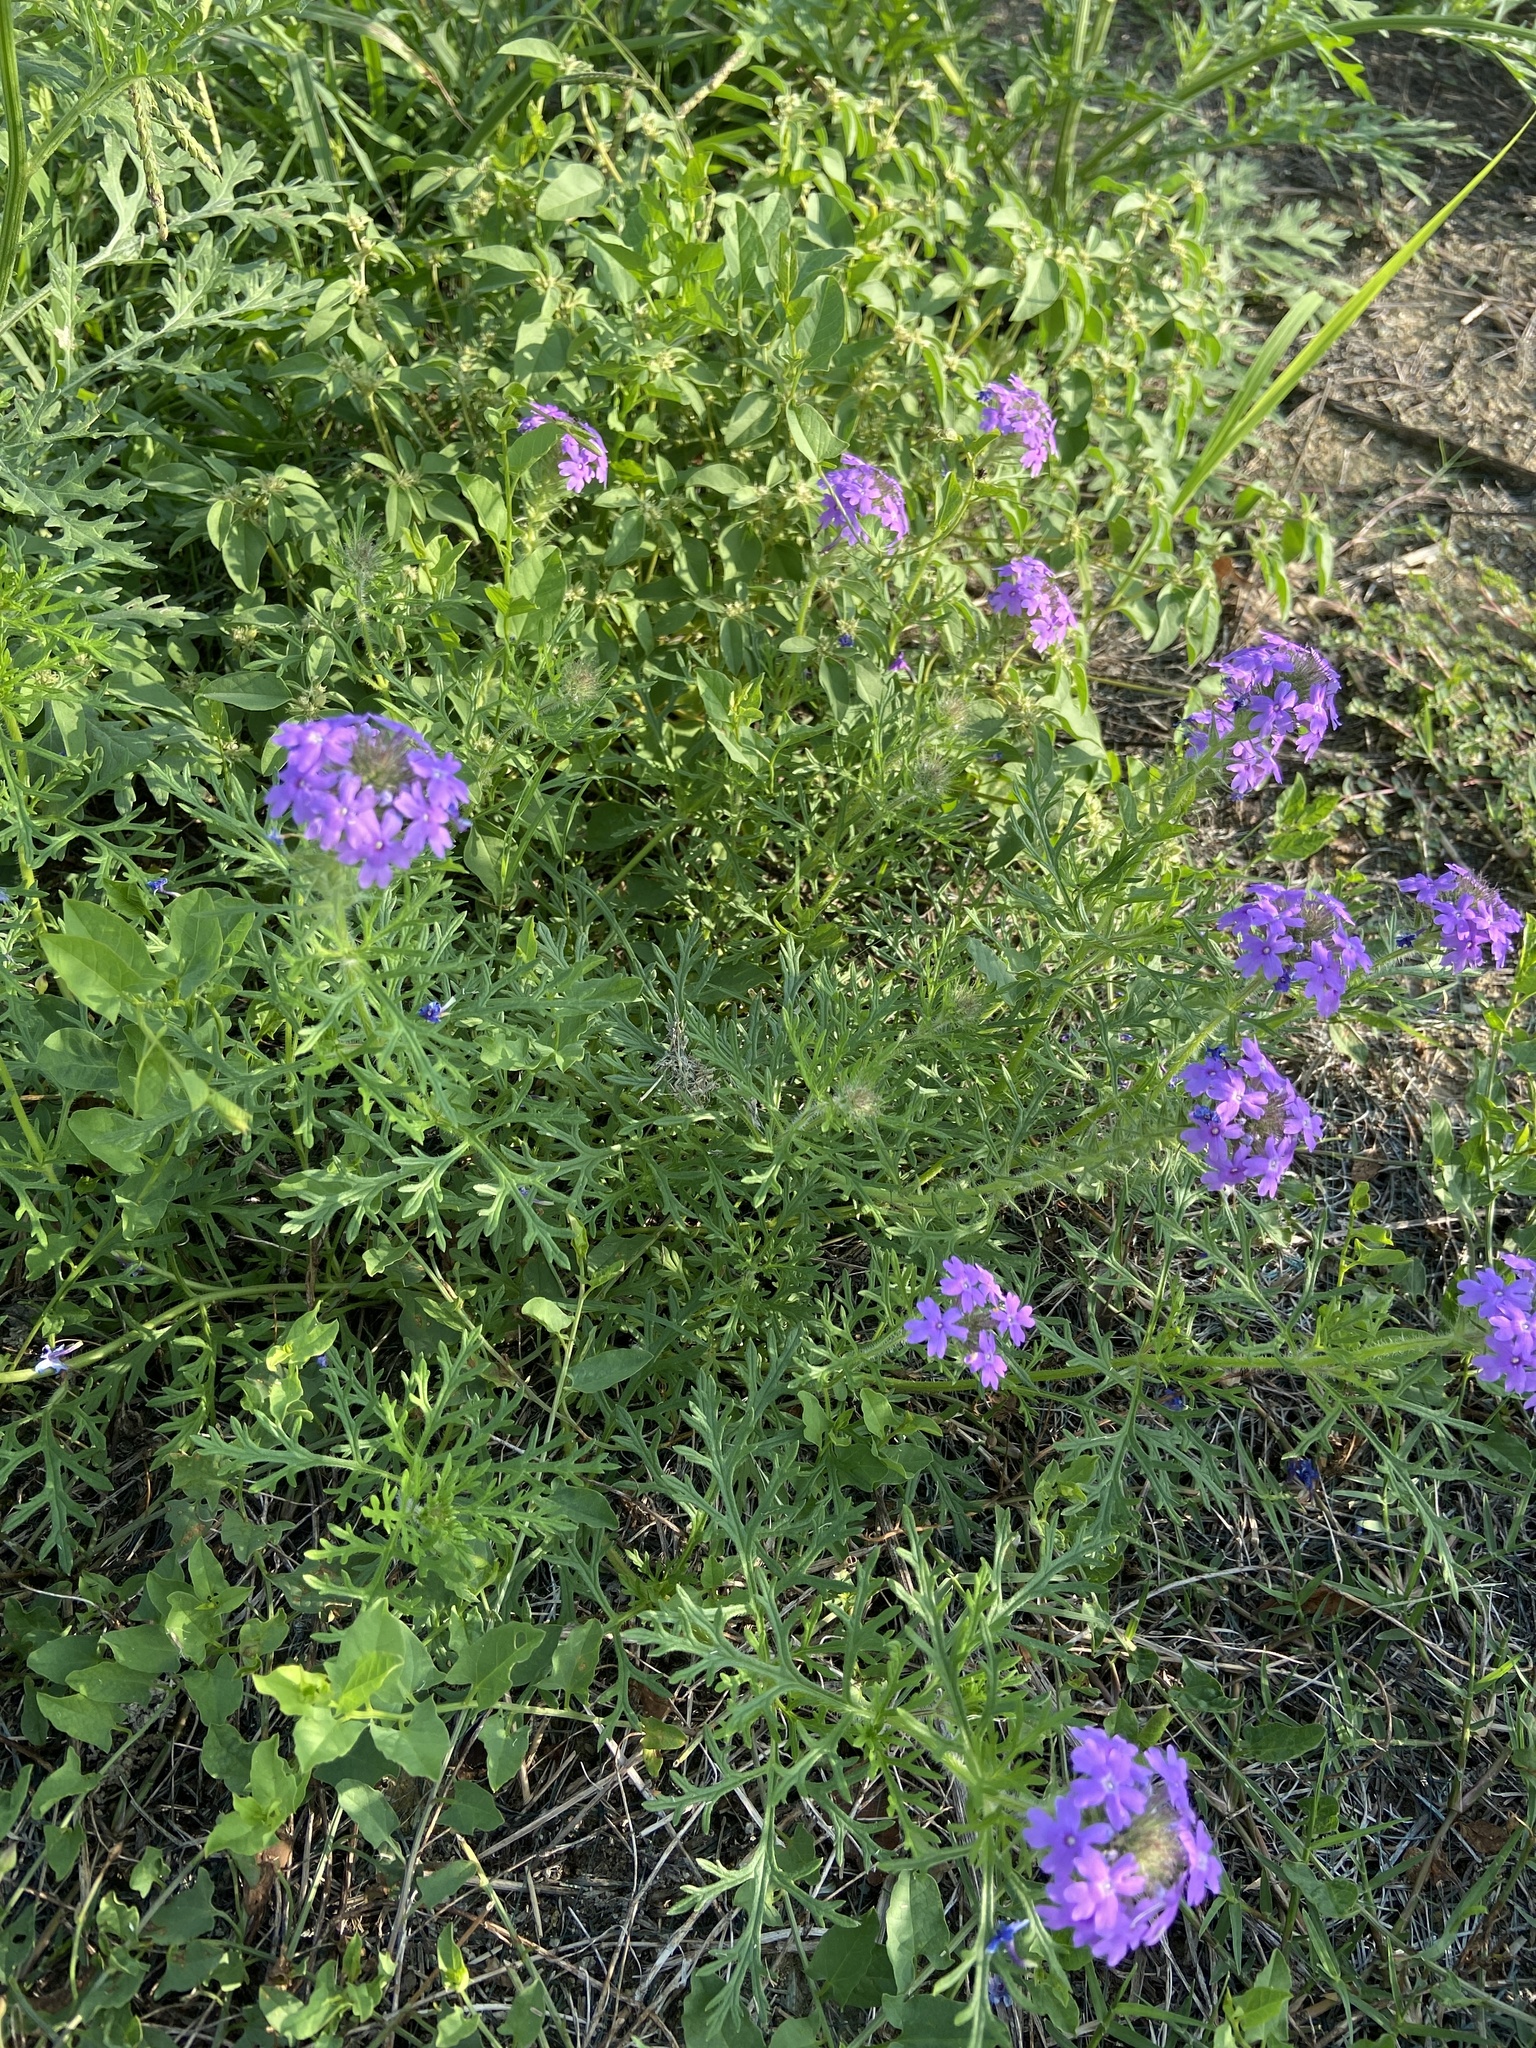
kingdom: Plantae
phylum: Tracheophyta
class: Magnoliopsida
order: Lamiales
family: Verbenaceae
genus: Verbena
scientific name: Verbena bipinnatifida
